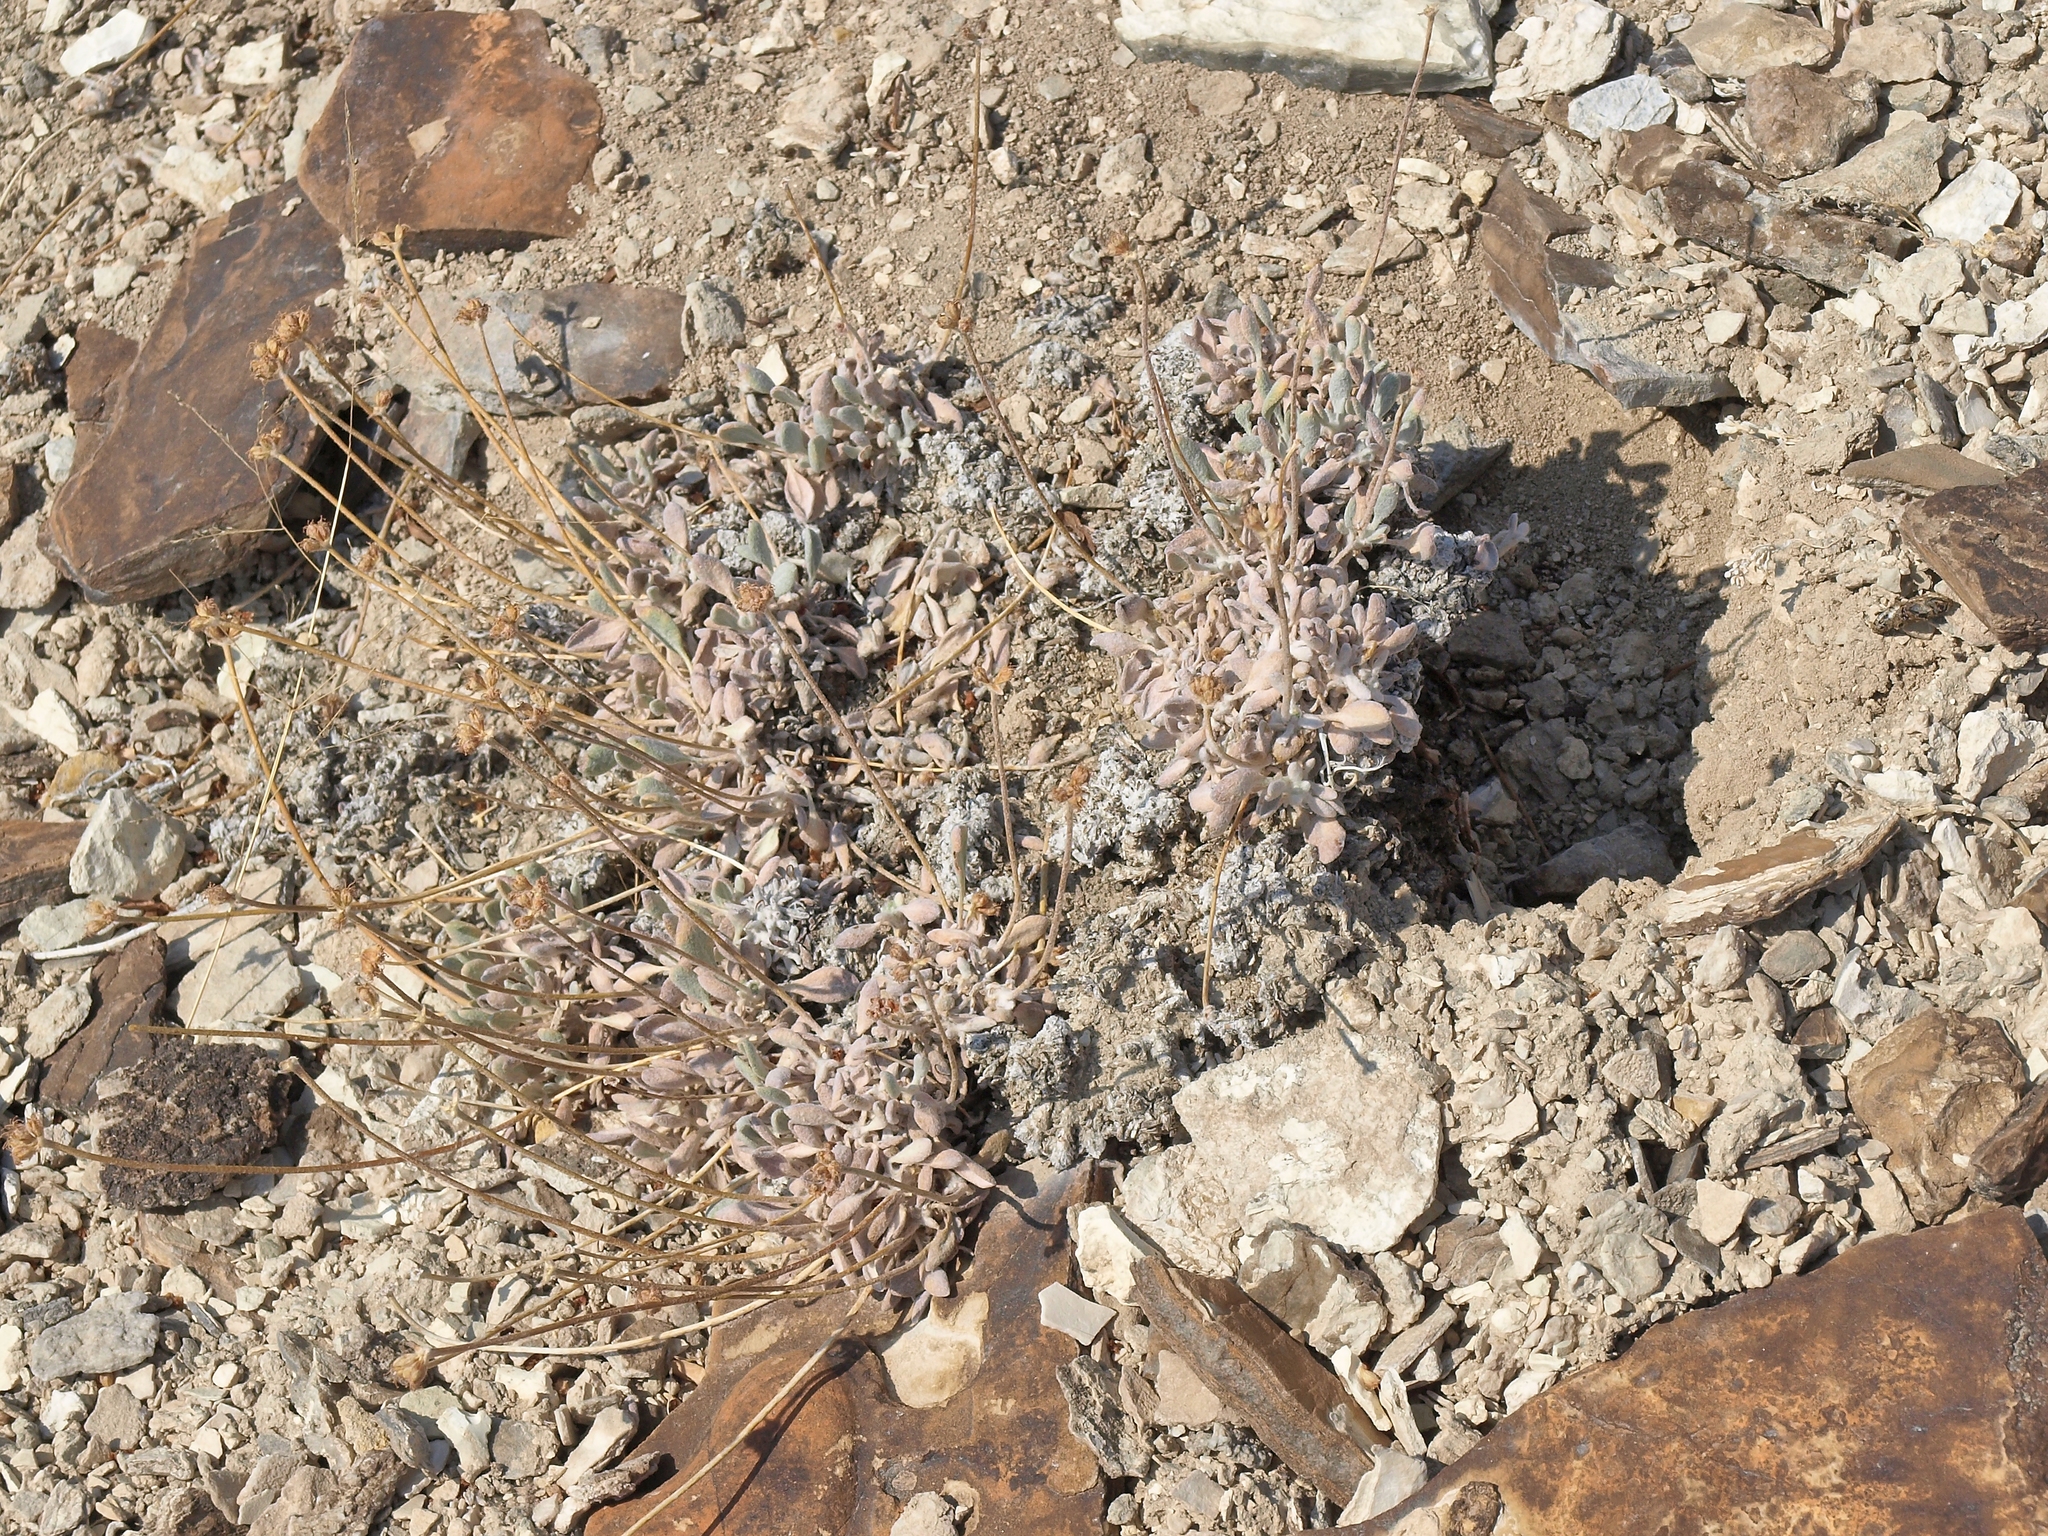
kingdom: Plantae
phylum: Tracheophyta
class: Magnoliopsida
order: Caryophyllales
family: Polygonaceae
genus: Eriogonum
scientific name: Eriogonum tiehmii
